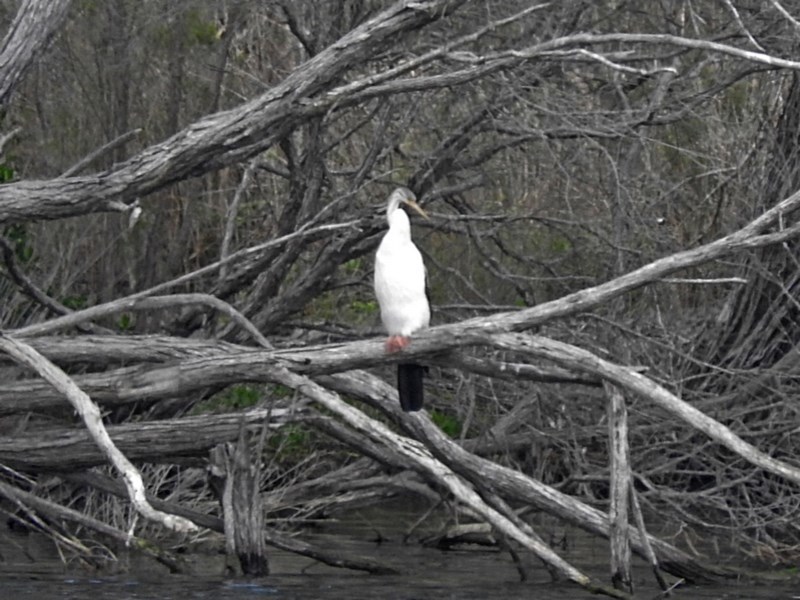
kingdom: Animalia
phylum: Chordata
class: Aves
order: Suliformes
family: Anhingidae
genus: Anhinga
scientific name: Anhinga novaehollandiae
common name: Australasian darter
